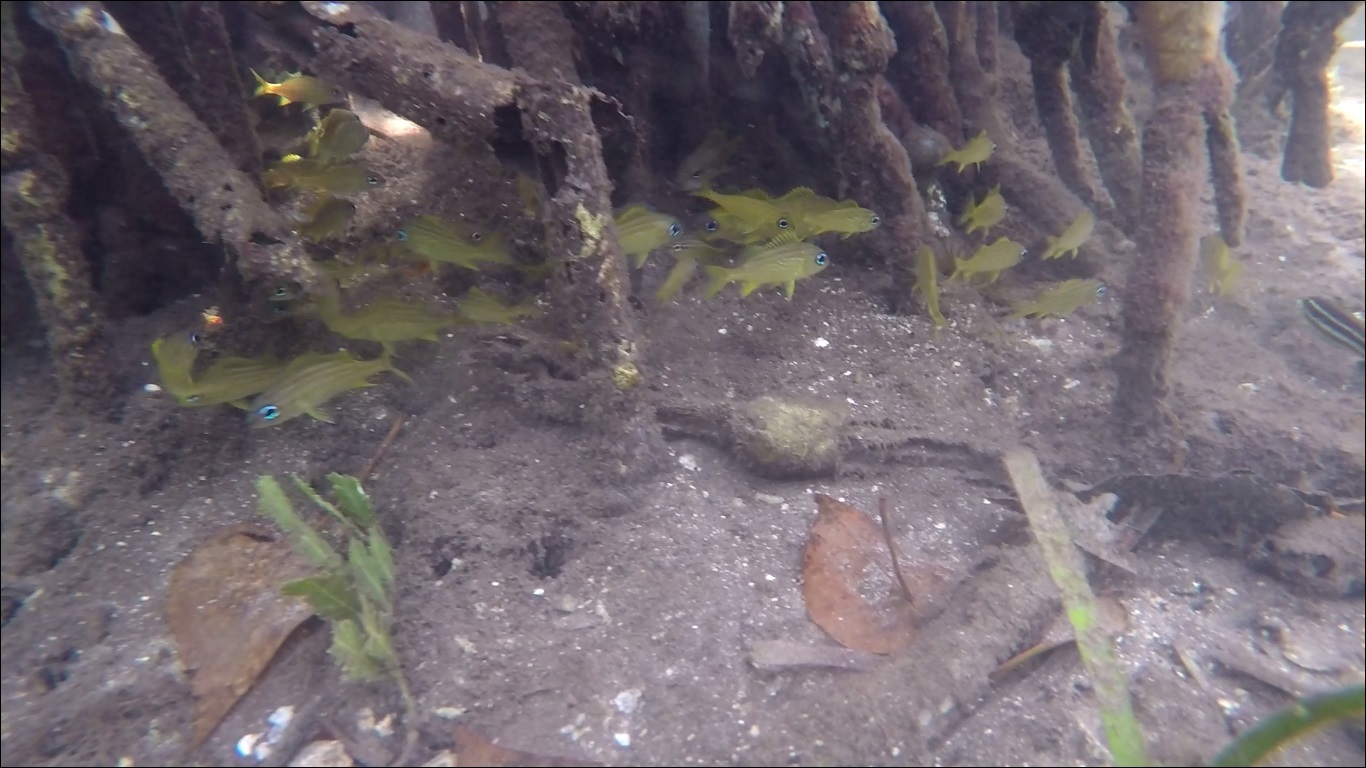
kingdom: Animalia
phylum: Chordata
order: Perciformes
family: Haemulidae
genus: Haemulon
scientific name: Haemulon flavolineatum
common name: French grunt
